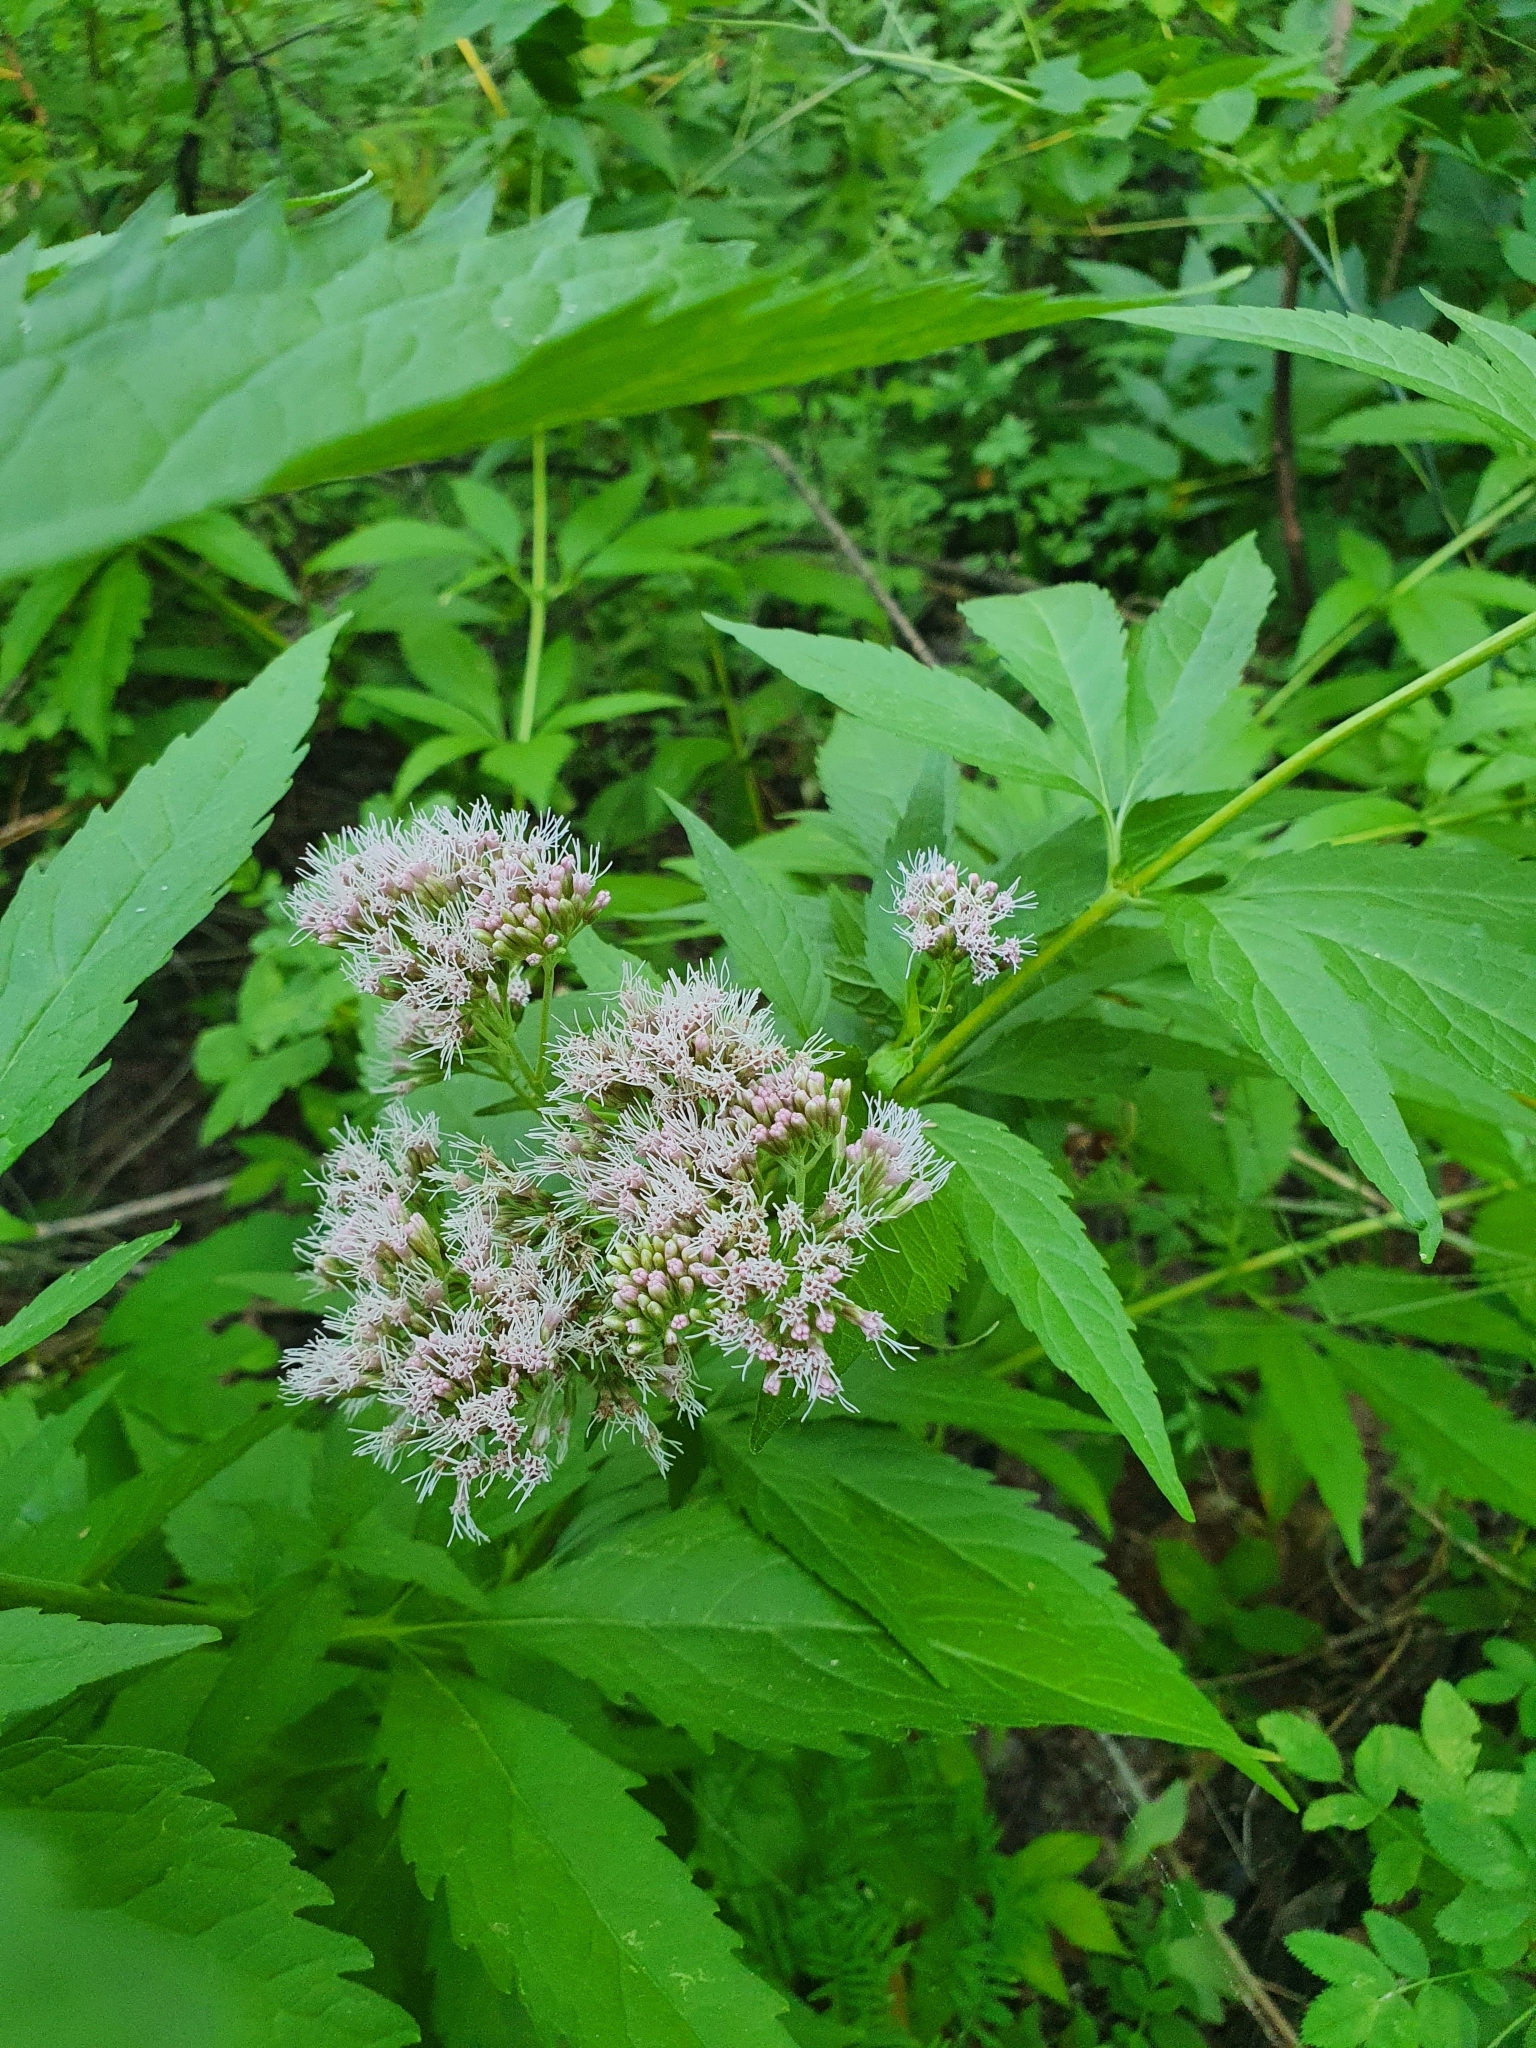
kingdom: Plantae
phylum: Tracheophyta
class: Magnoliopsida
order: Asterales
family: Asteraceae
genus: Eupatorium
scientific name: Eupatorium cannabinum
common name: Hemp-agrimony
